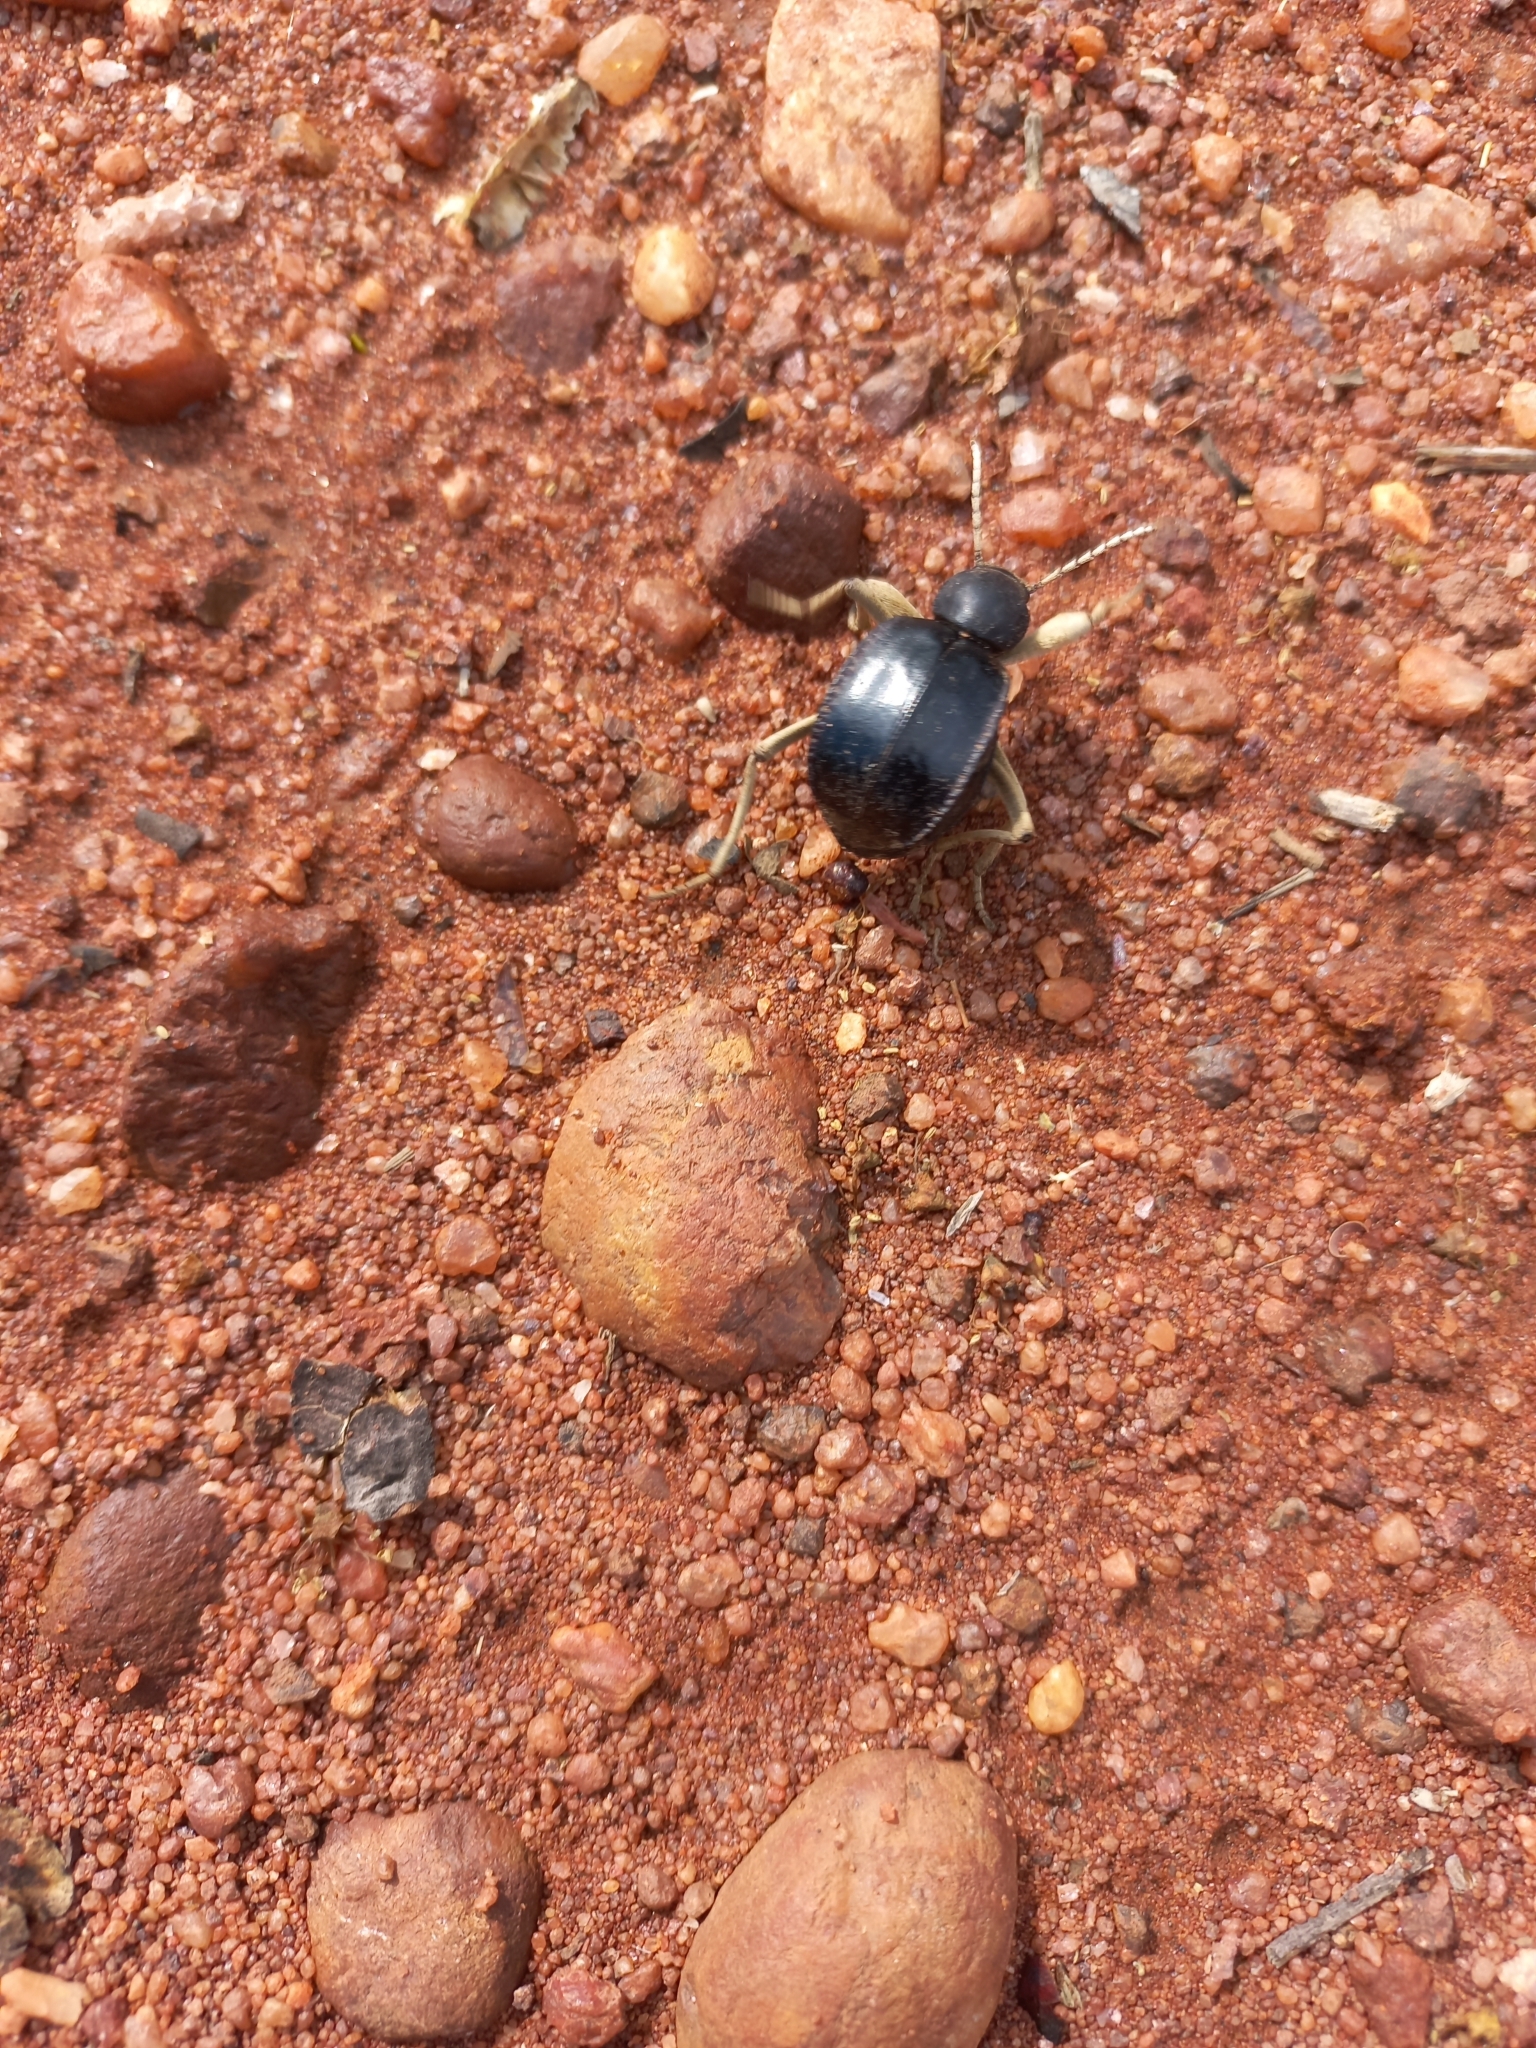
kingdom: Animalia
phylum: Arthropoda
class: Insecta
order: Coleoptera
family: Tenebrionidae
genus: Dichtha
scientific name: Dichtha cubica
